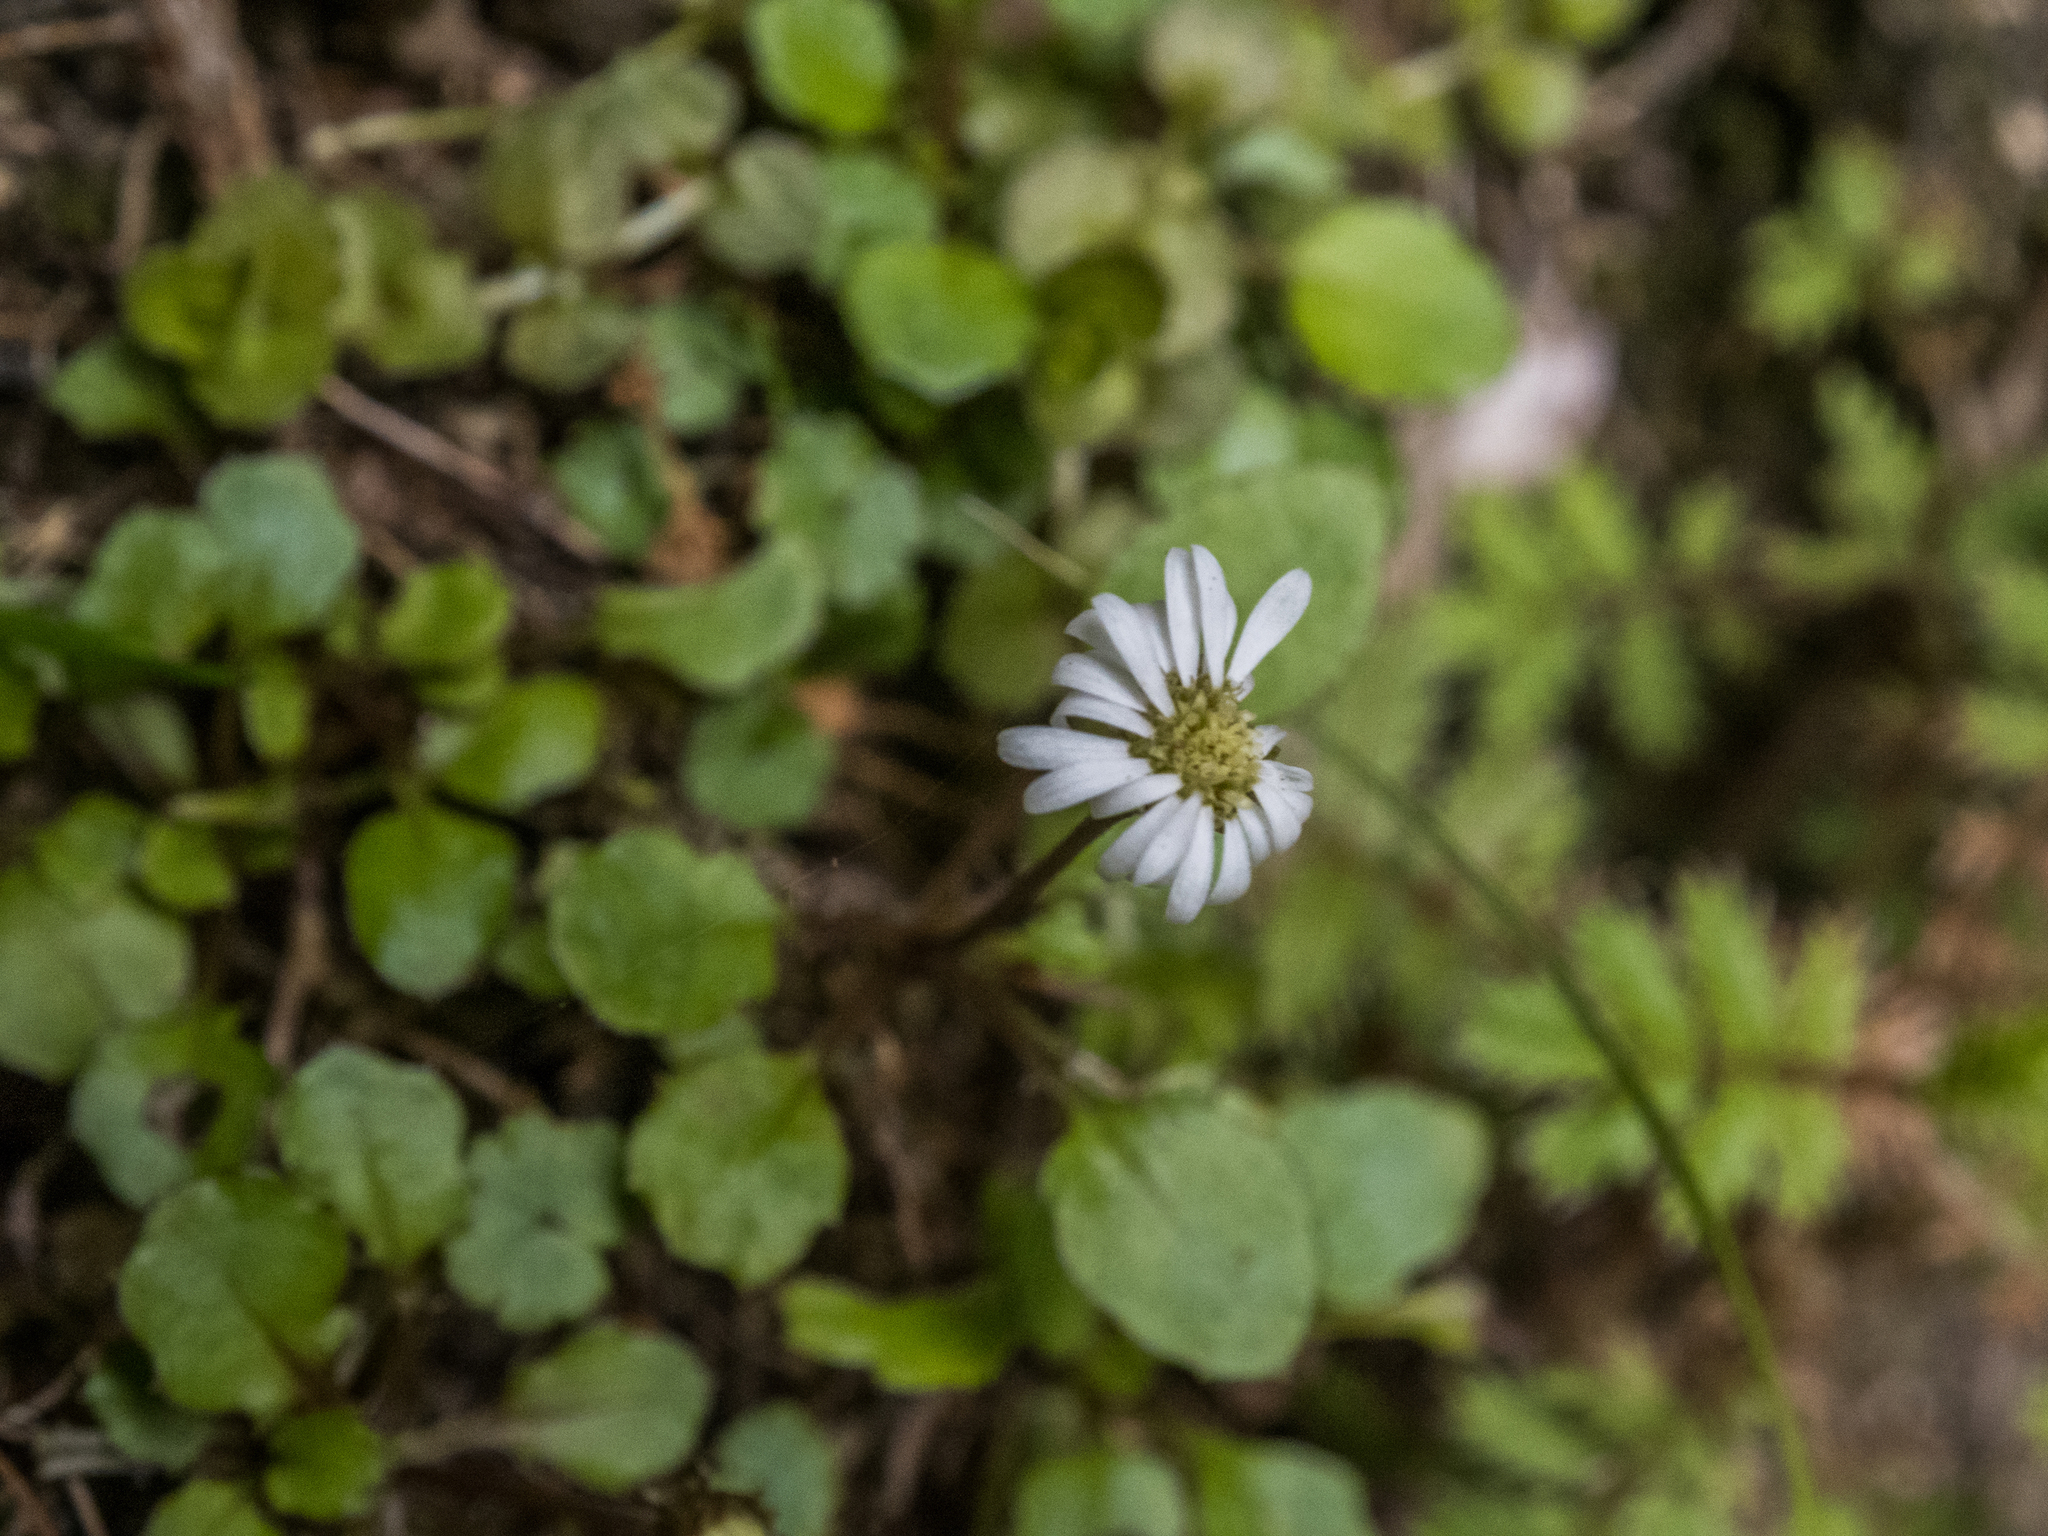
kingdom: Plantae
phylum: Tracheophyta
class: Magnoliopsida
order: Asterales
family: Asteraceae
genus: Lagenophora
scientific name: Lagenophora pumila
